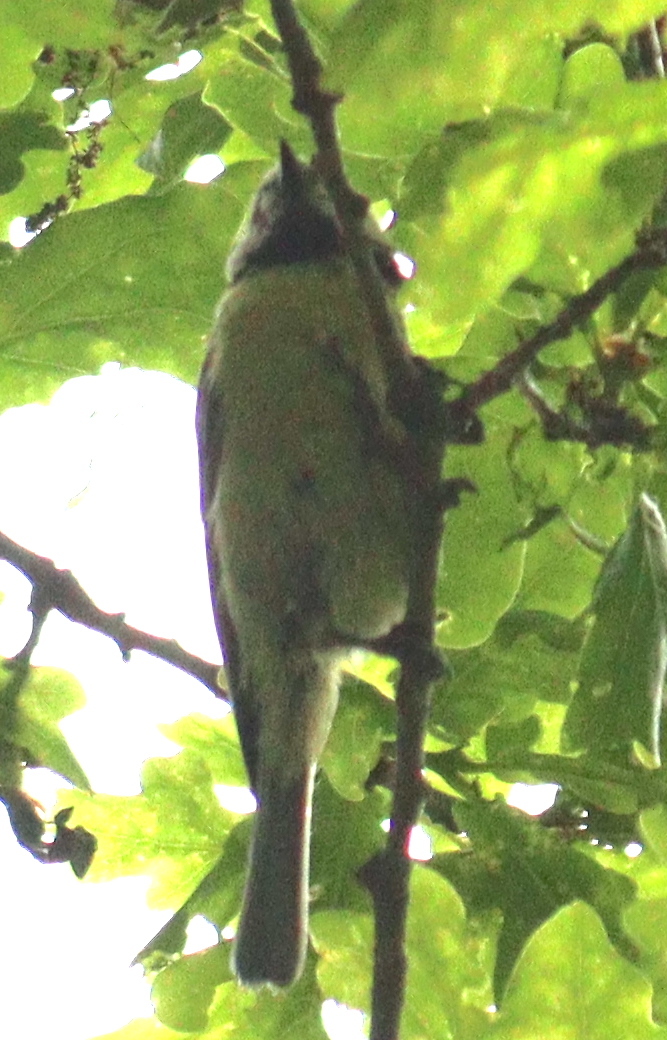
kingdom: Animalia
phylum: Chordata
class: Aves
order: Passeriformes
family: Paridae
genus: Cyanistes
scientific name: Cyanistes caeruleus
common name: Eurasian blue tit
